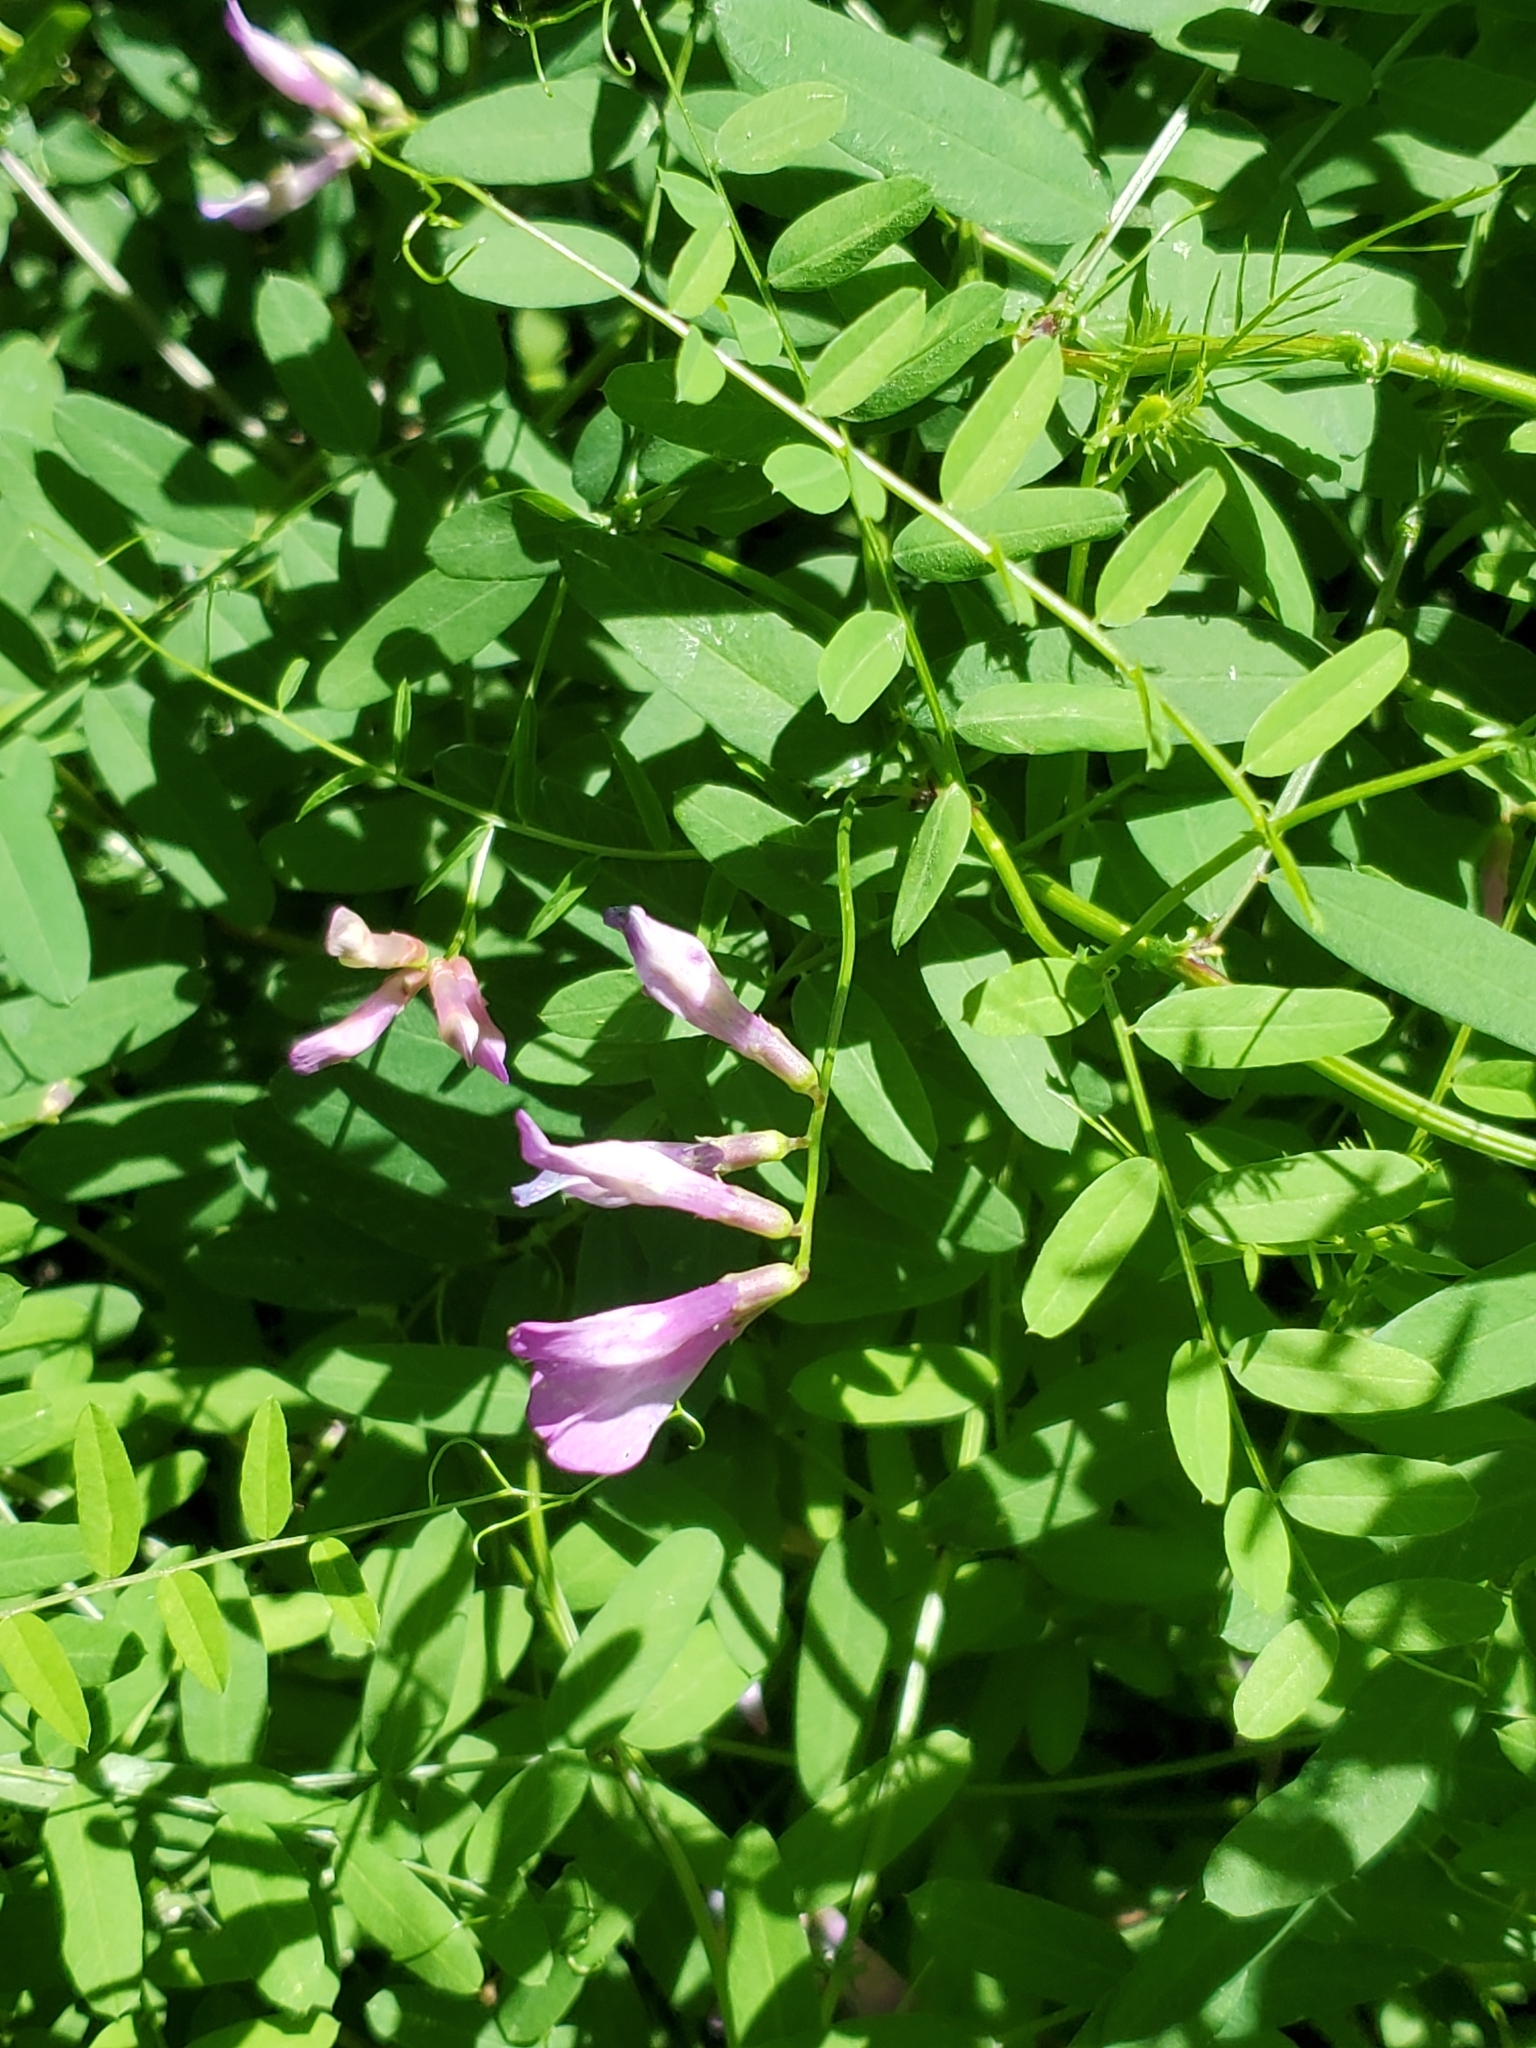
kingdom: Plantae
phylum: Tracheophyta
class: Magnoliopsida
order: Fabales
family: Fabaceae
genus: Vicia
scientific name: Vicia americana
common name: American vetch
